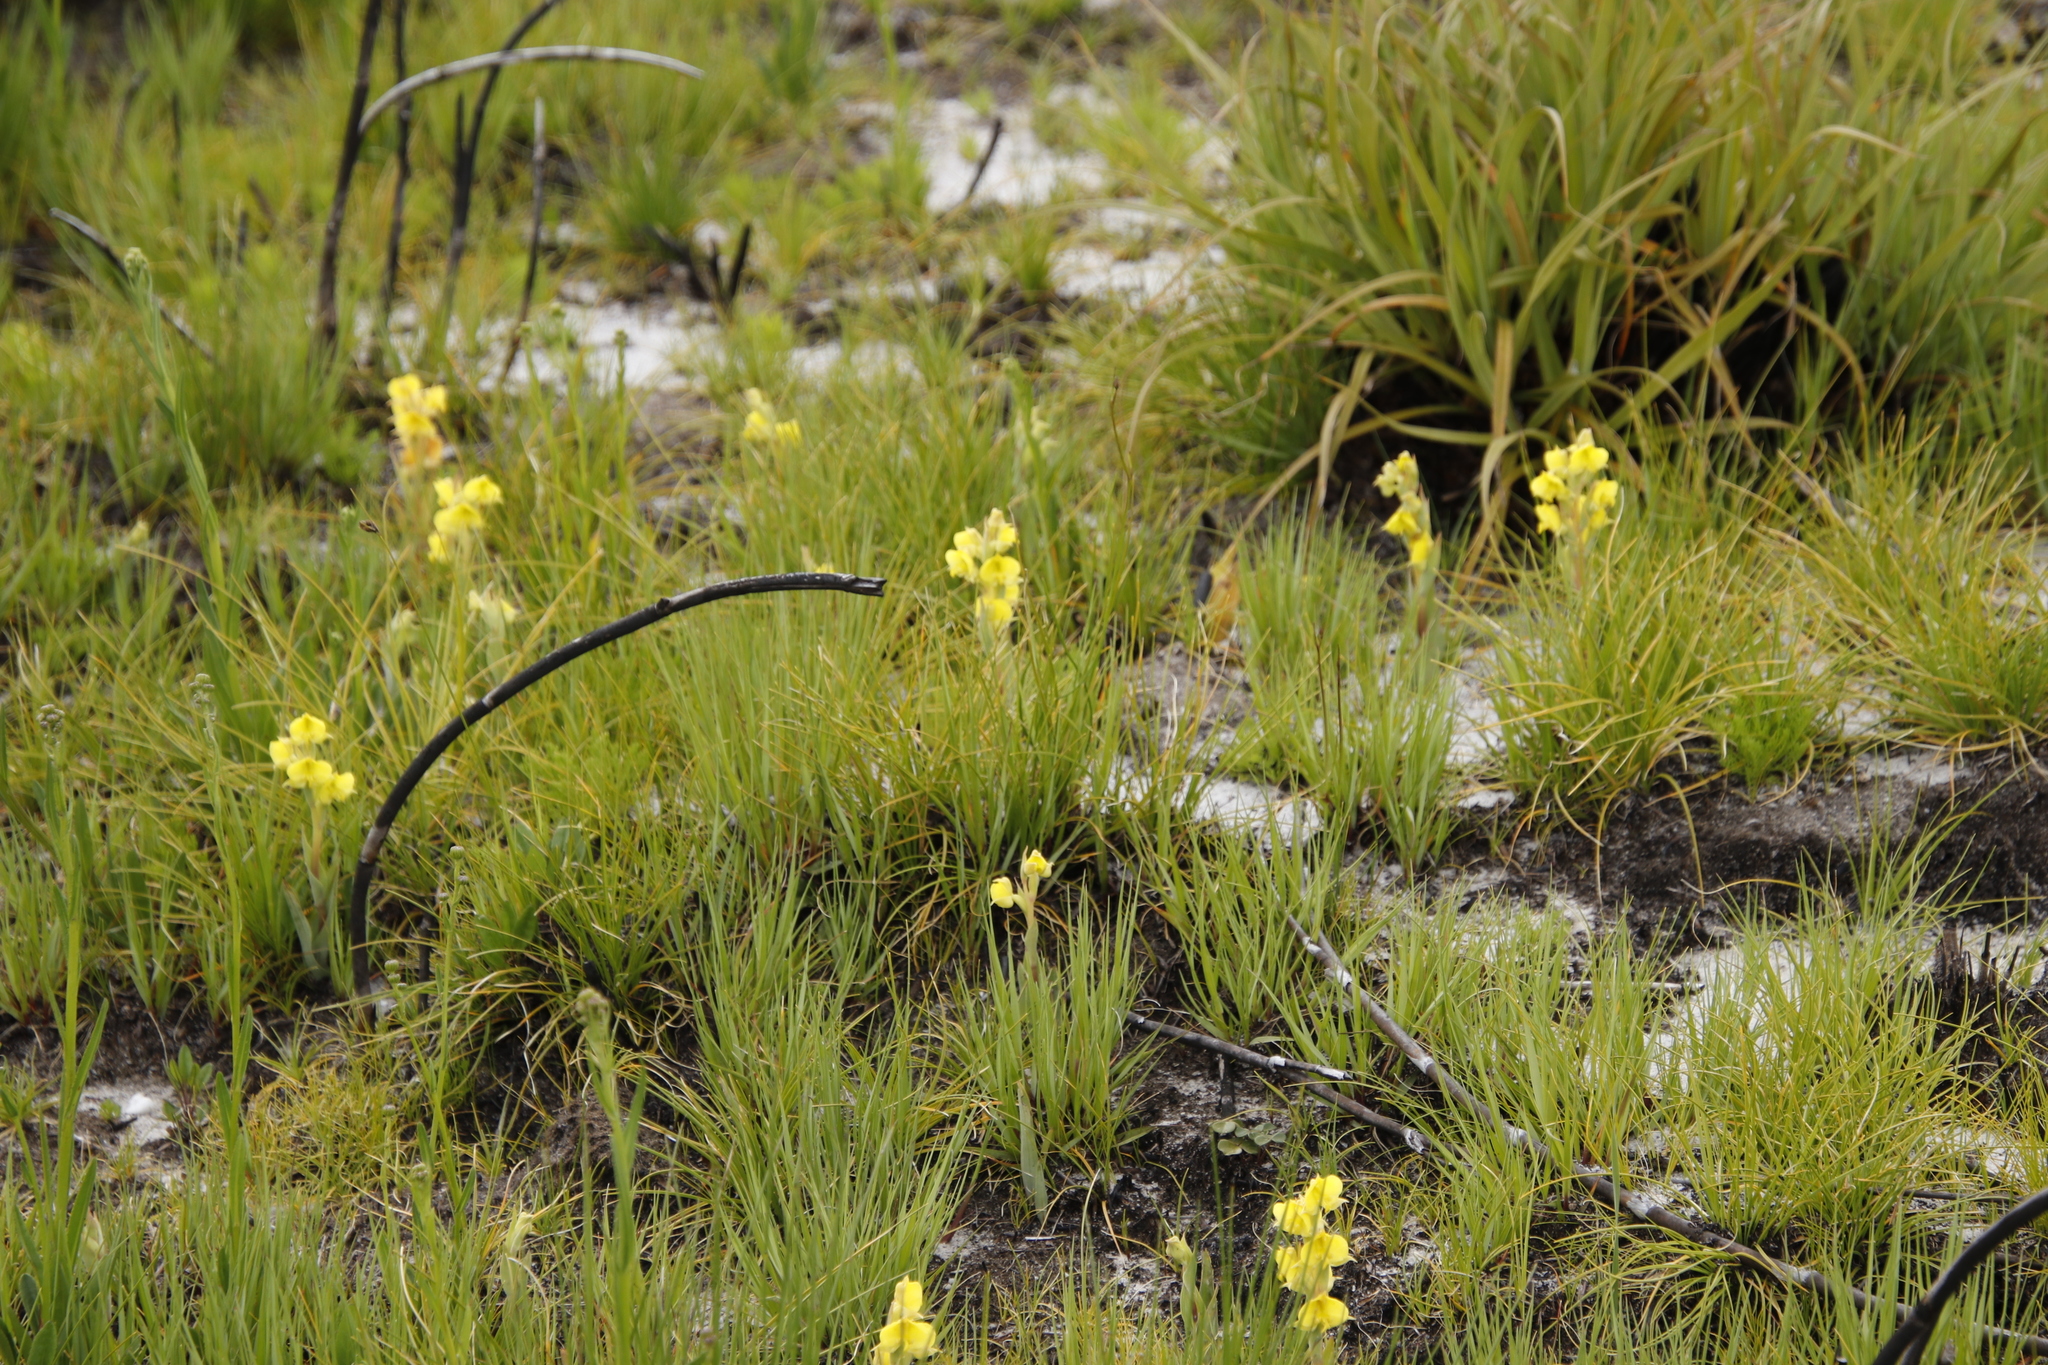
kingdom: Plantae
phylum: Tracheophyta
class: Liliopsida
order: Asparagales
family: Orchidaceae
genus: Pterygodium
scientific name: Pterygodium acutifolium
